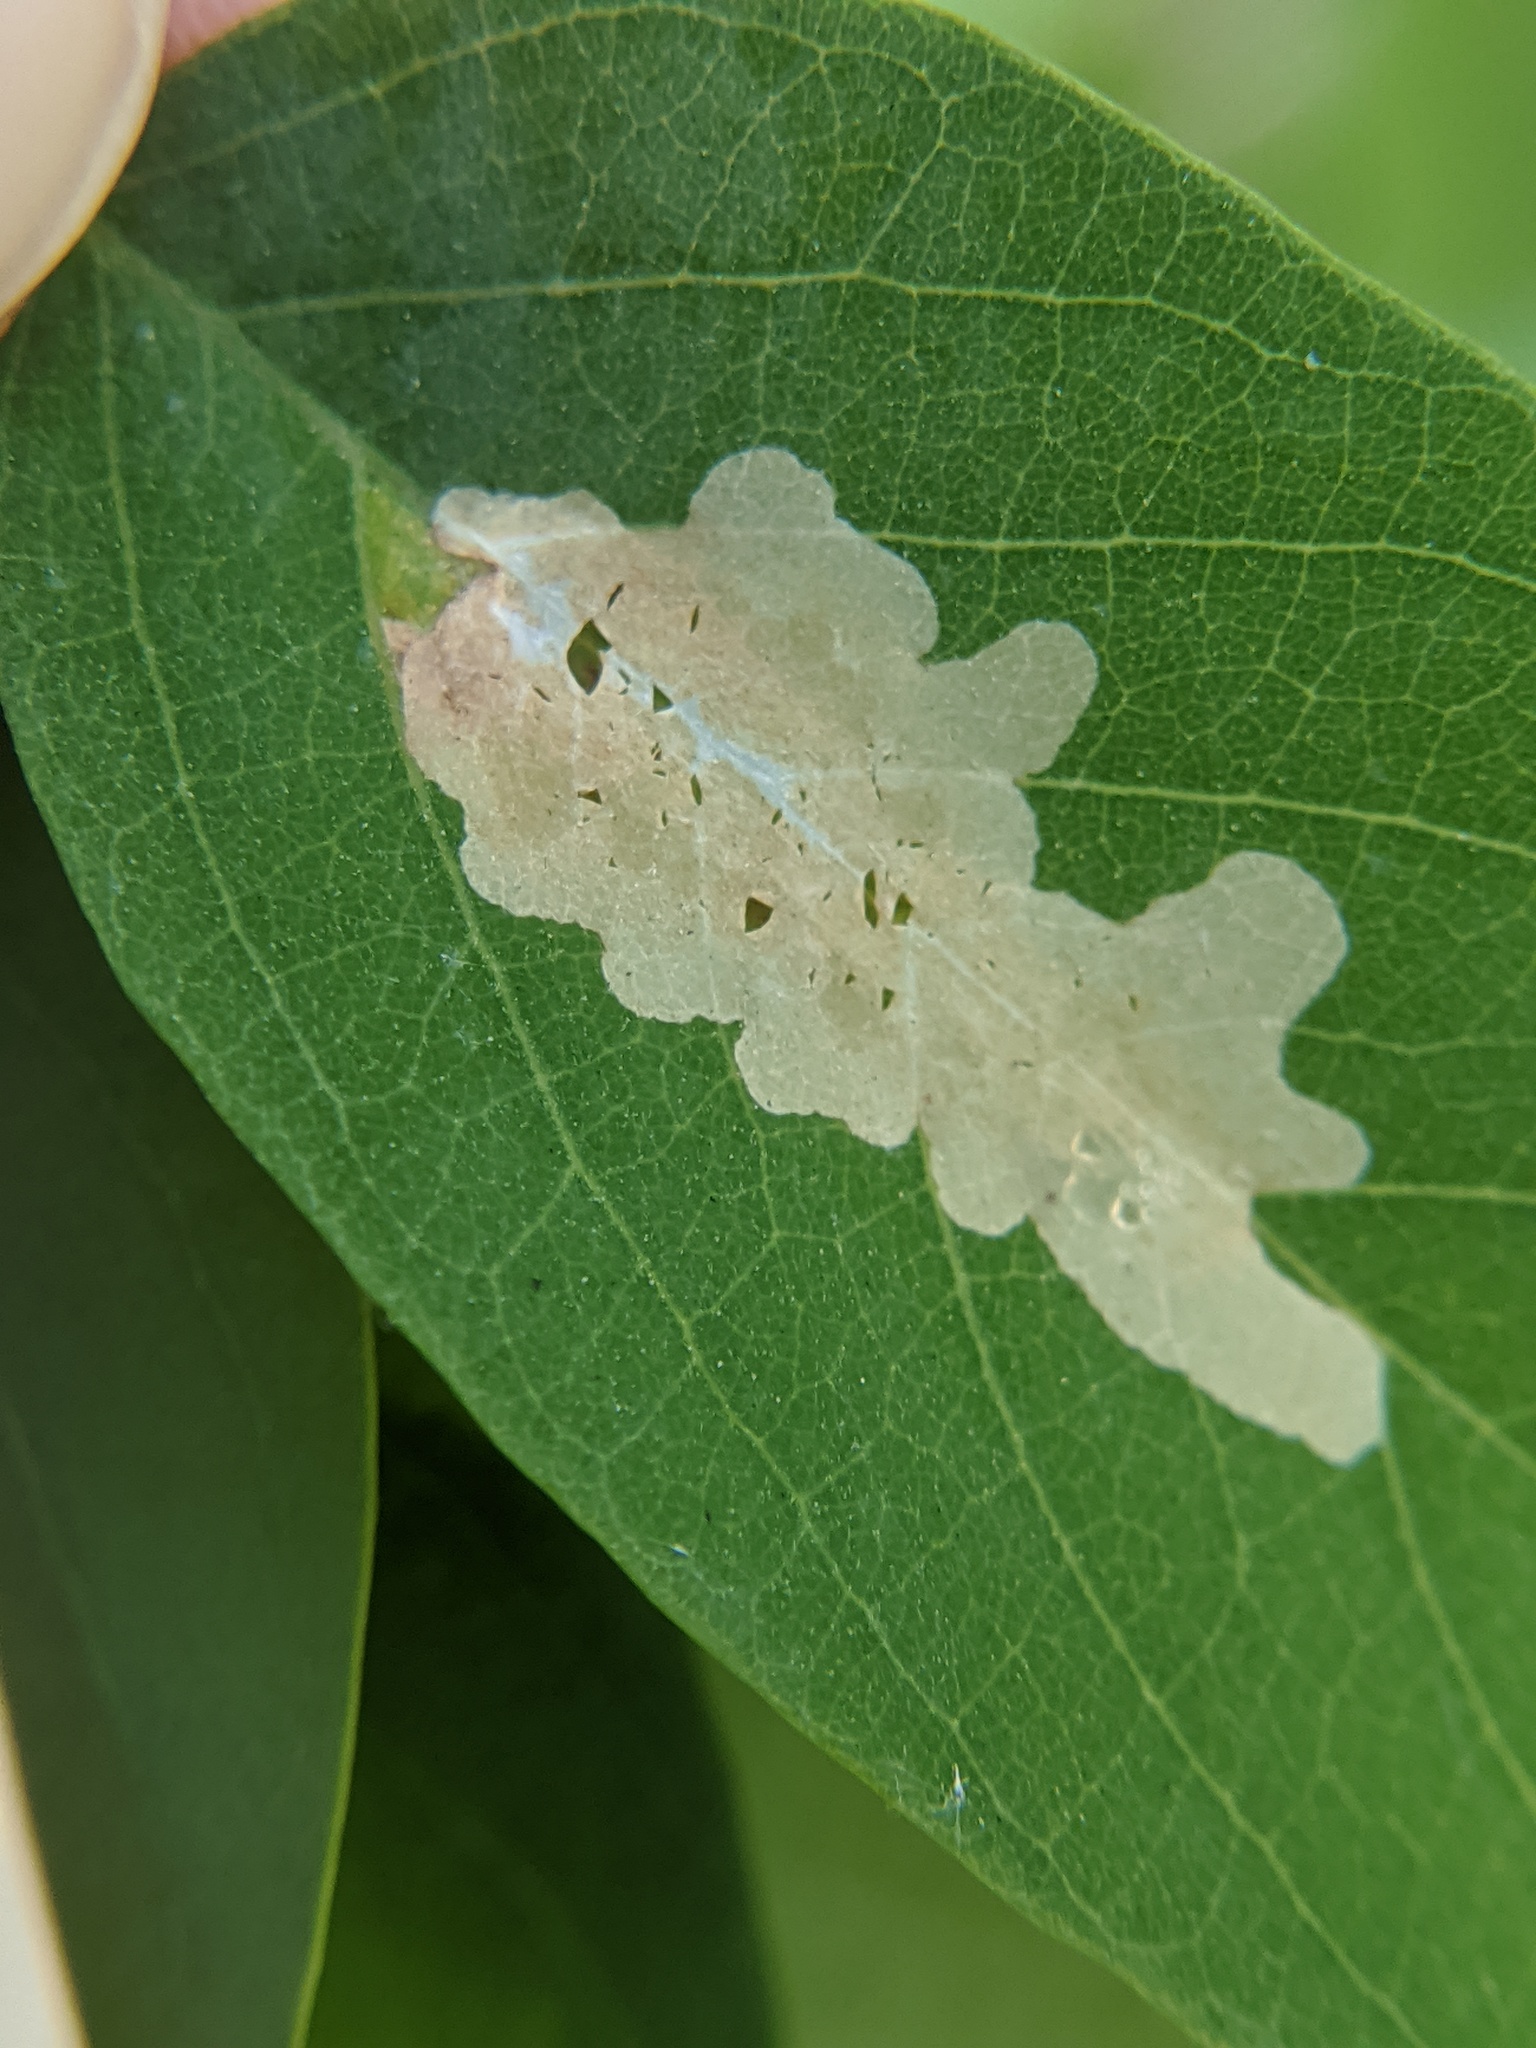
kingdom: Animalia
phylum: Arthropoda
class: Insecta
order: Lepidoptera
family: Gracillariidae
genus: Parectopa
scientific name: Parectopa robiniella
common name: Locust digitate leafminer
